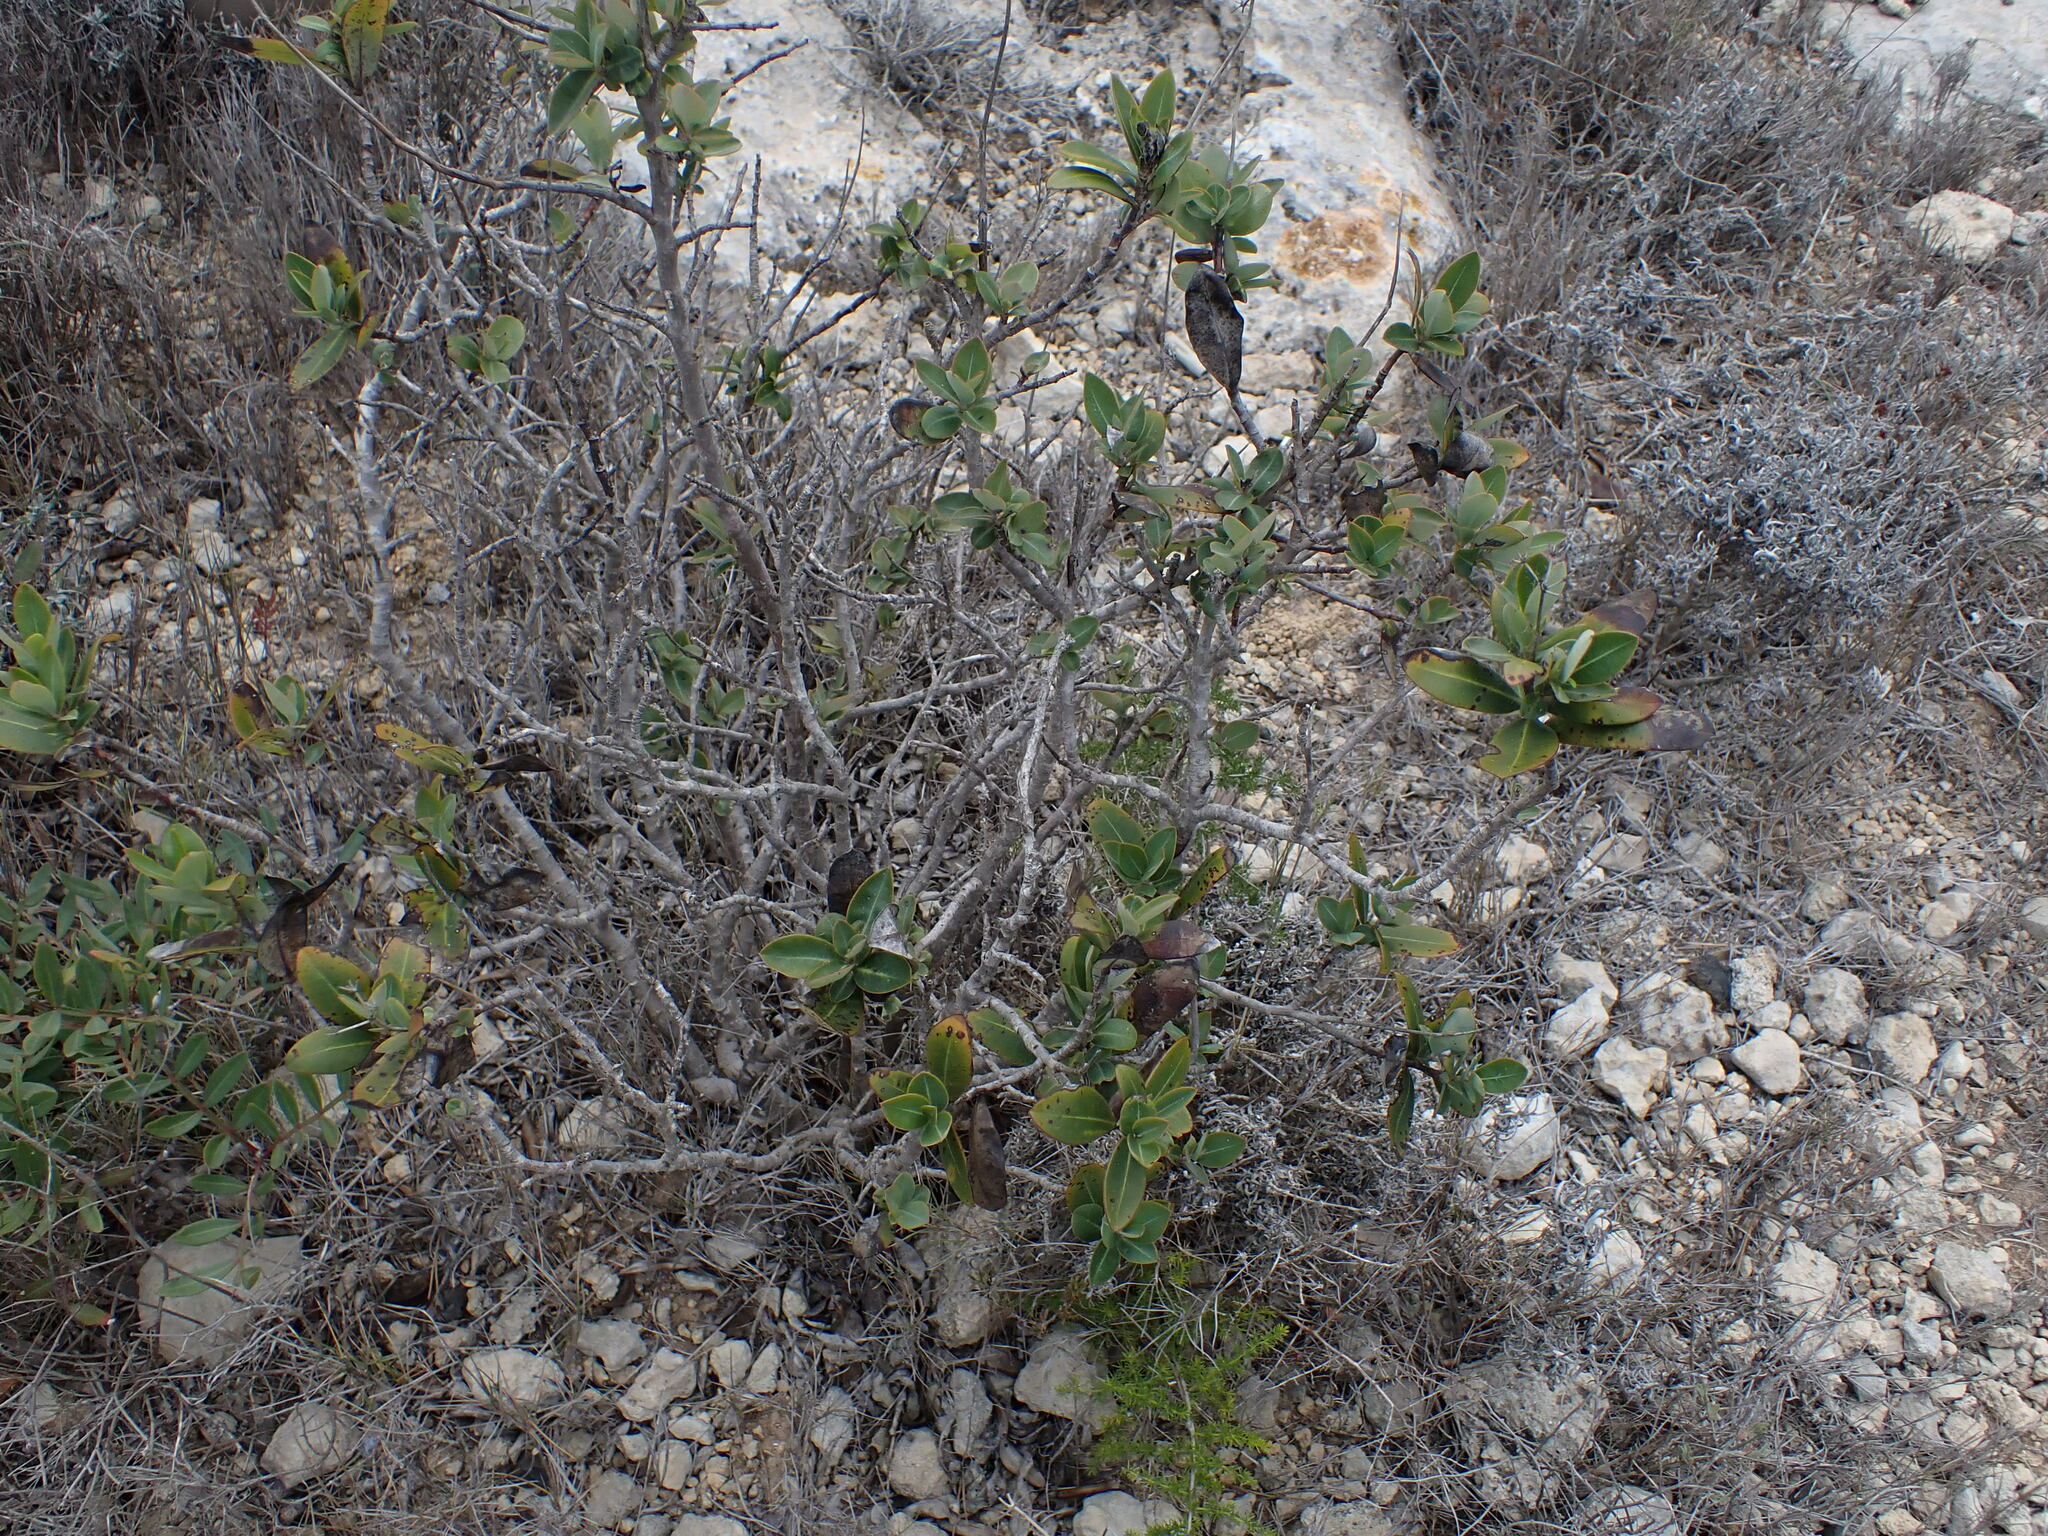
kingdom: Plantae
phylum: Tracheophyta
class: Magnoliopsida
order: Apiales
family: Apiaceae
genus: Bupleurum
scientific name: Bupleurum fruticosum
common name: Shrubby hare's-ear
